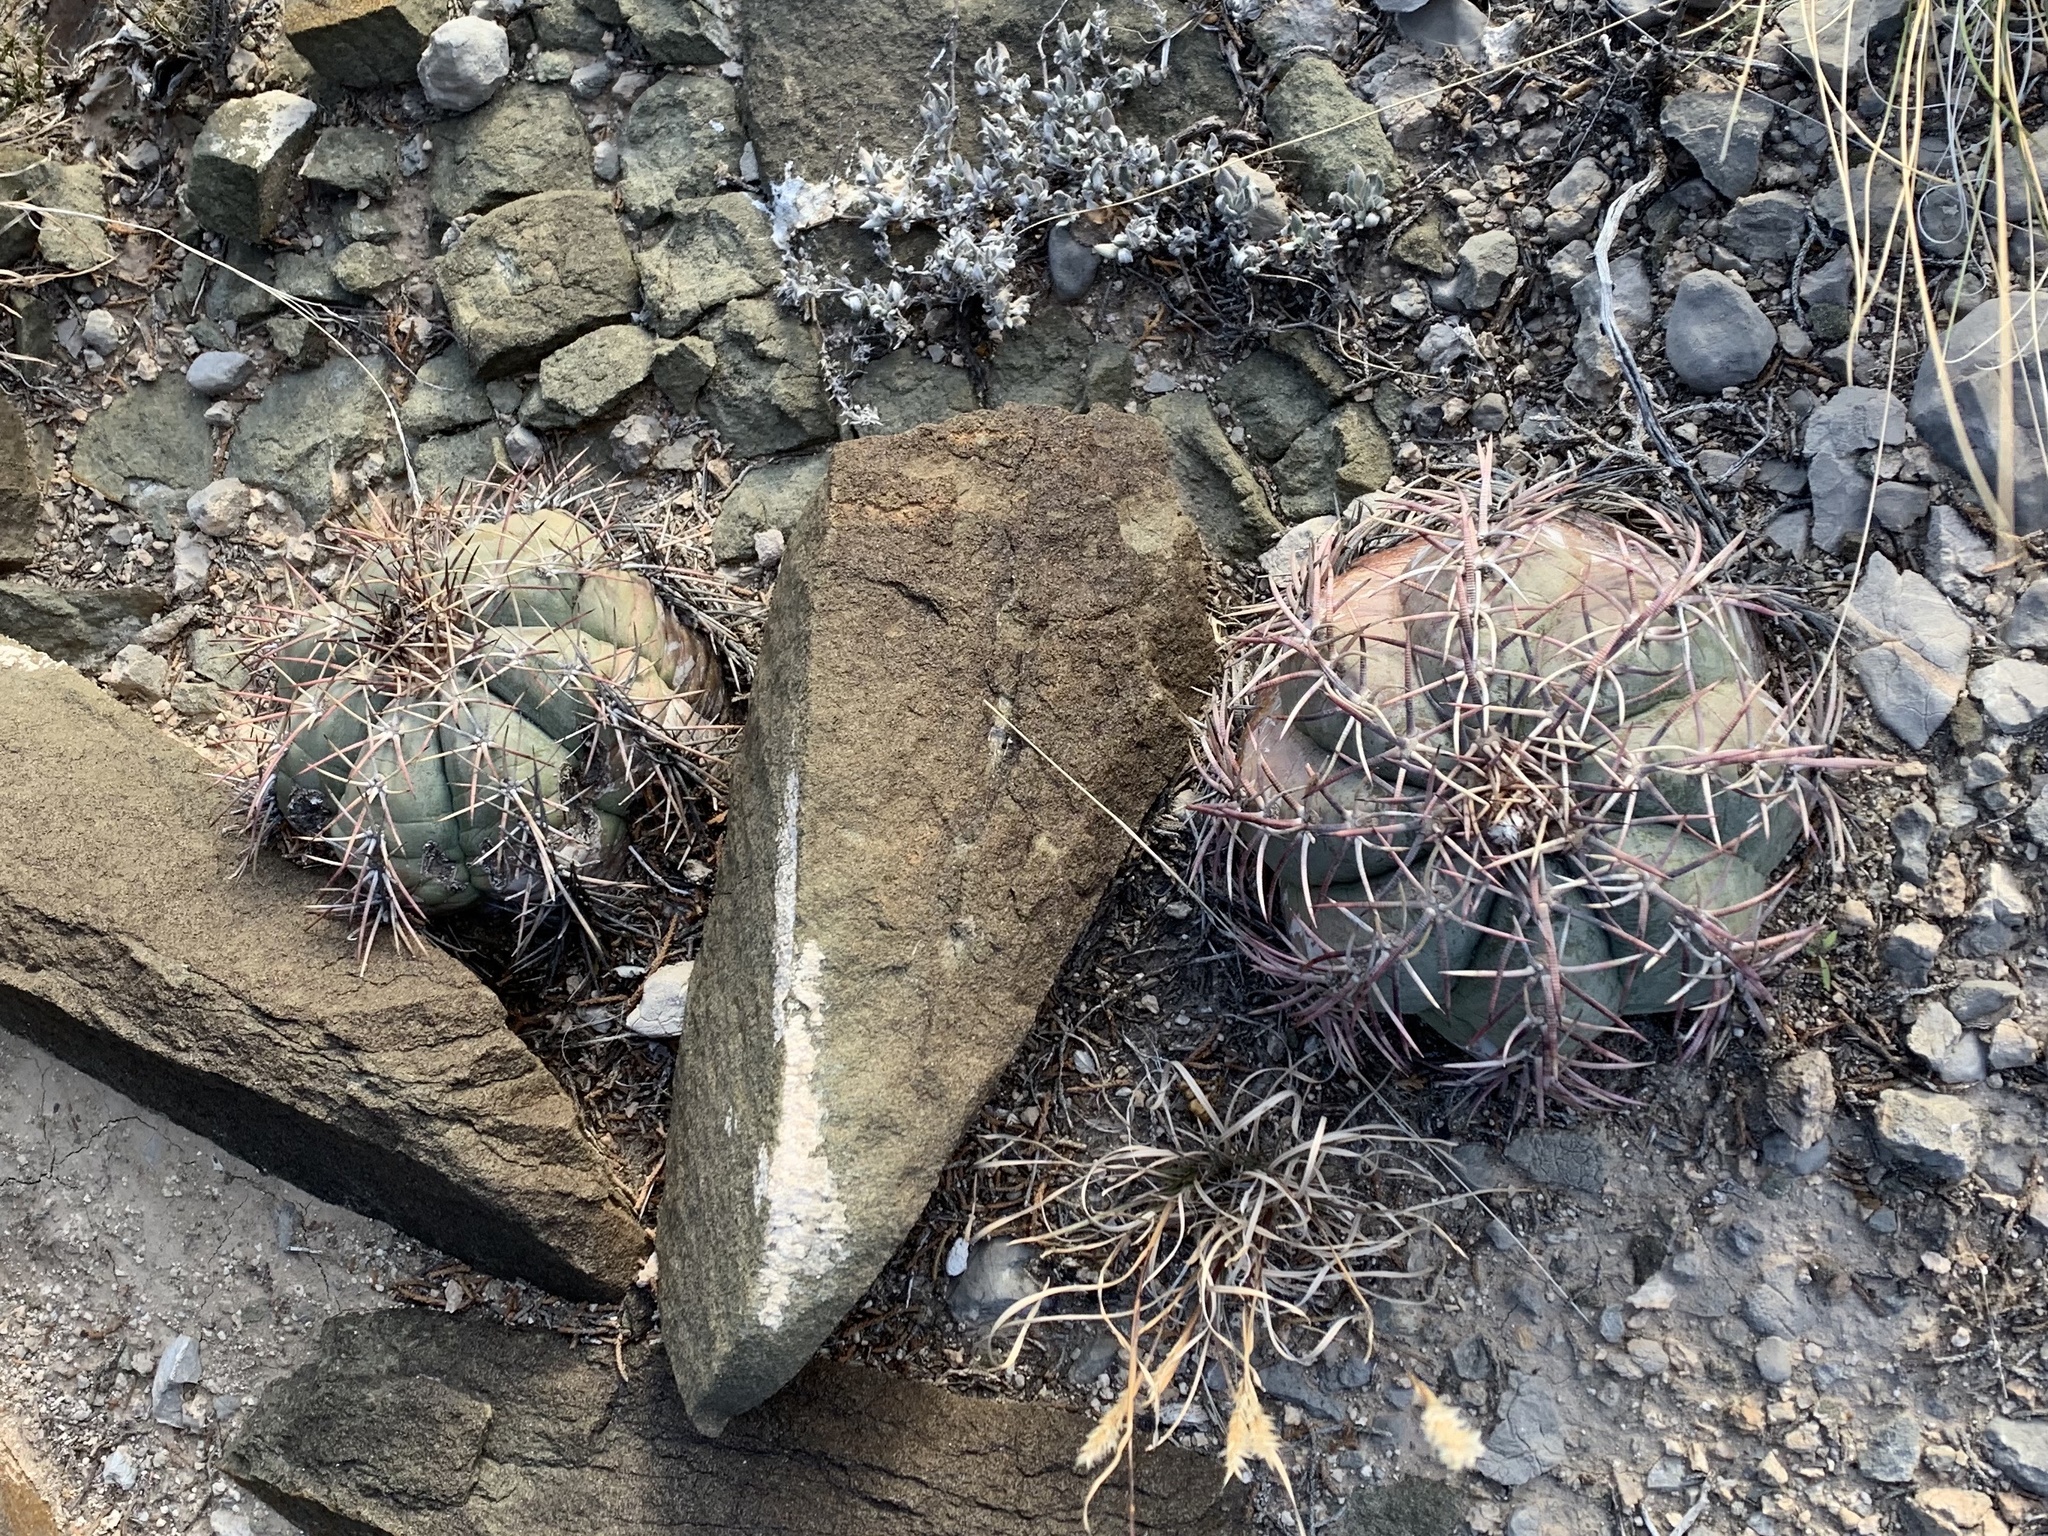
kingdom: Plantae
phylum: Tracheophyta
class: Magnoliopsida
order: Caryophyllales
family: Cactaceae
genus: Echinocactus
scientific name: Echinocactus horizonthalonius
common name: Devilshead
